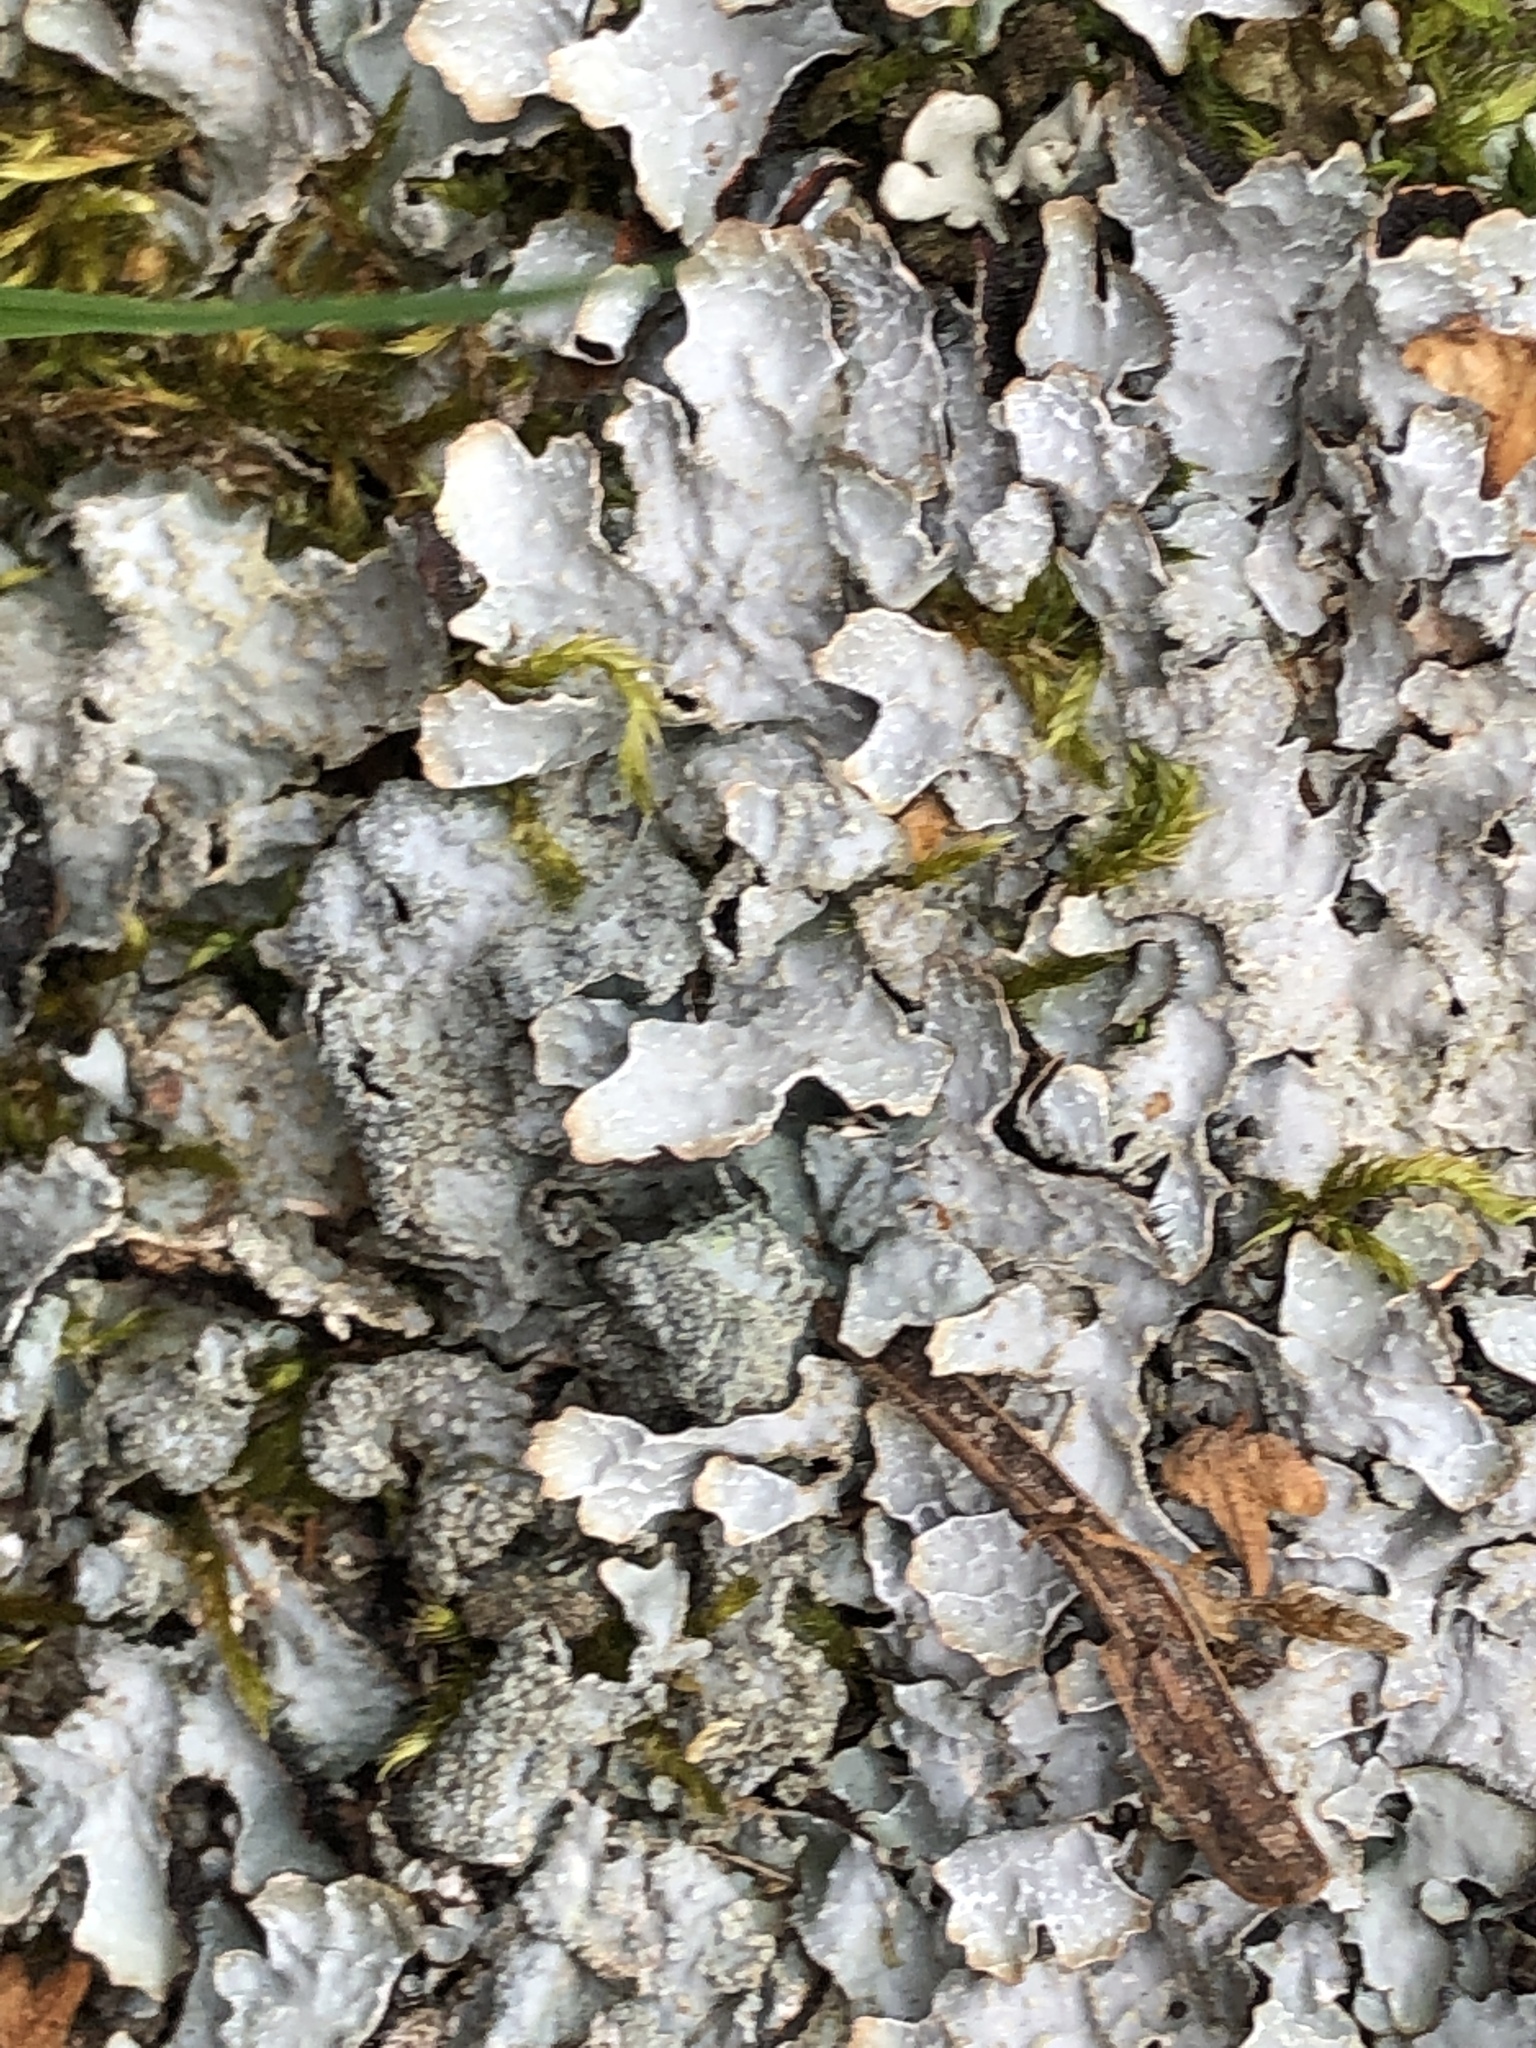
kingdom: Fungi
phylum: Ascomycota
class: Lecanoromycetes
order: Lecanorales
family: Parmeliaceae
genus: Parmelia
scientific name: Parmelia sulcata
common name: Netted shield lichen
